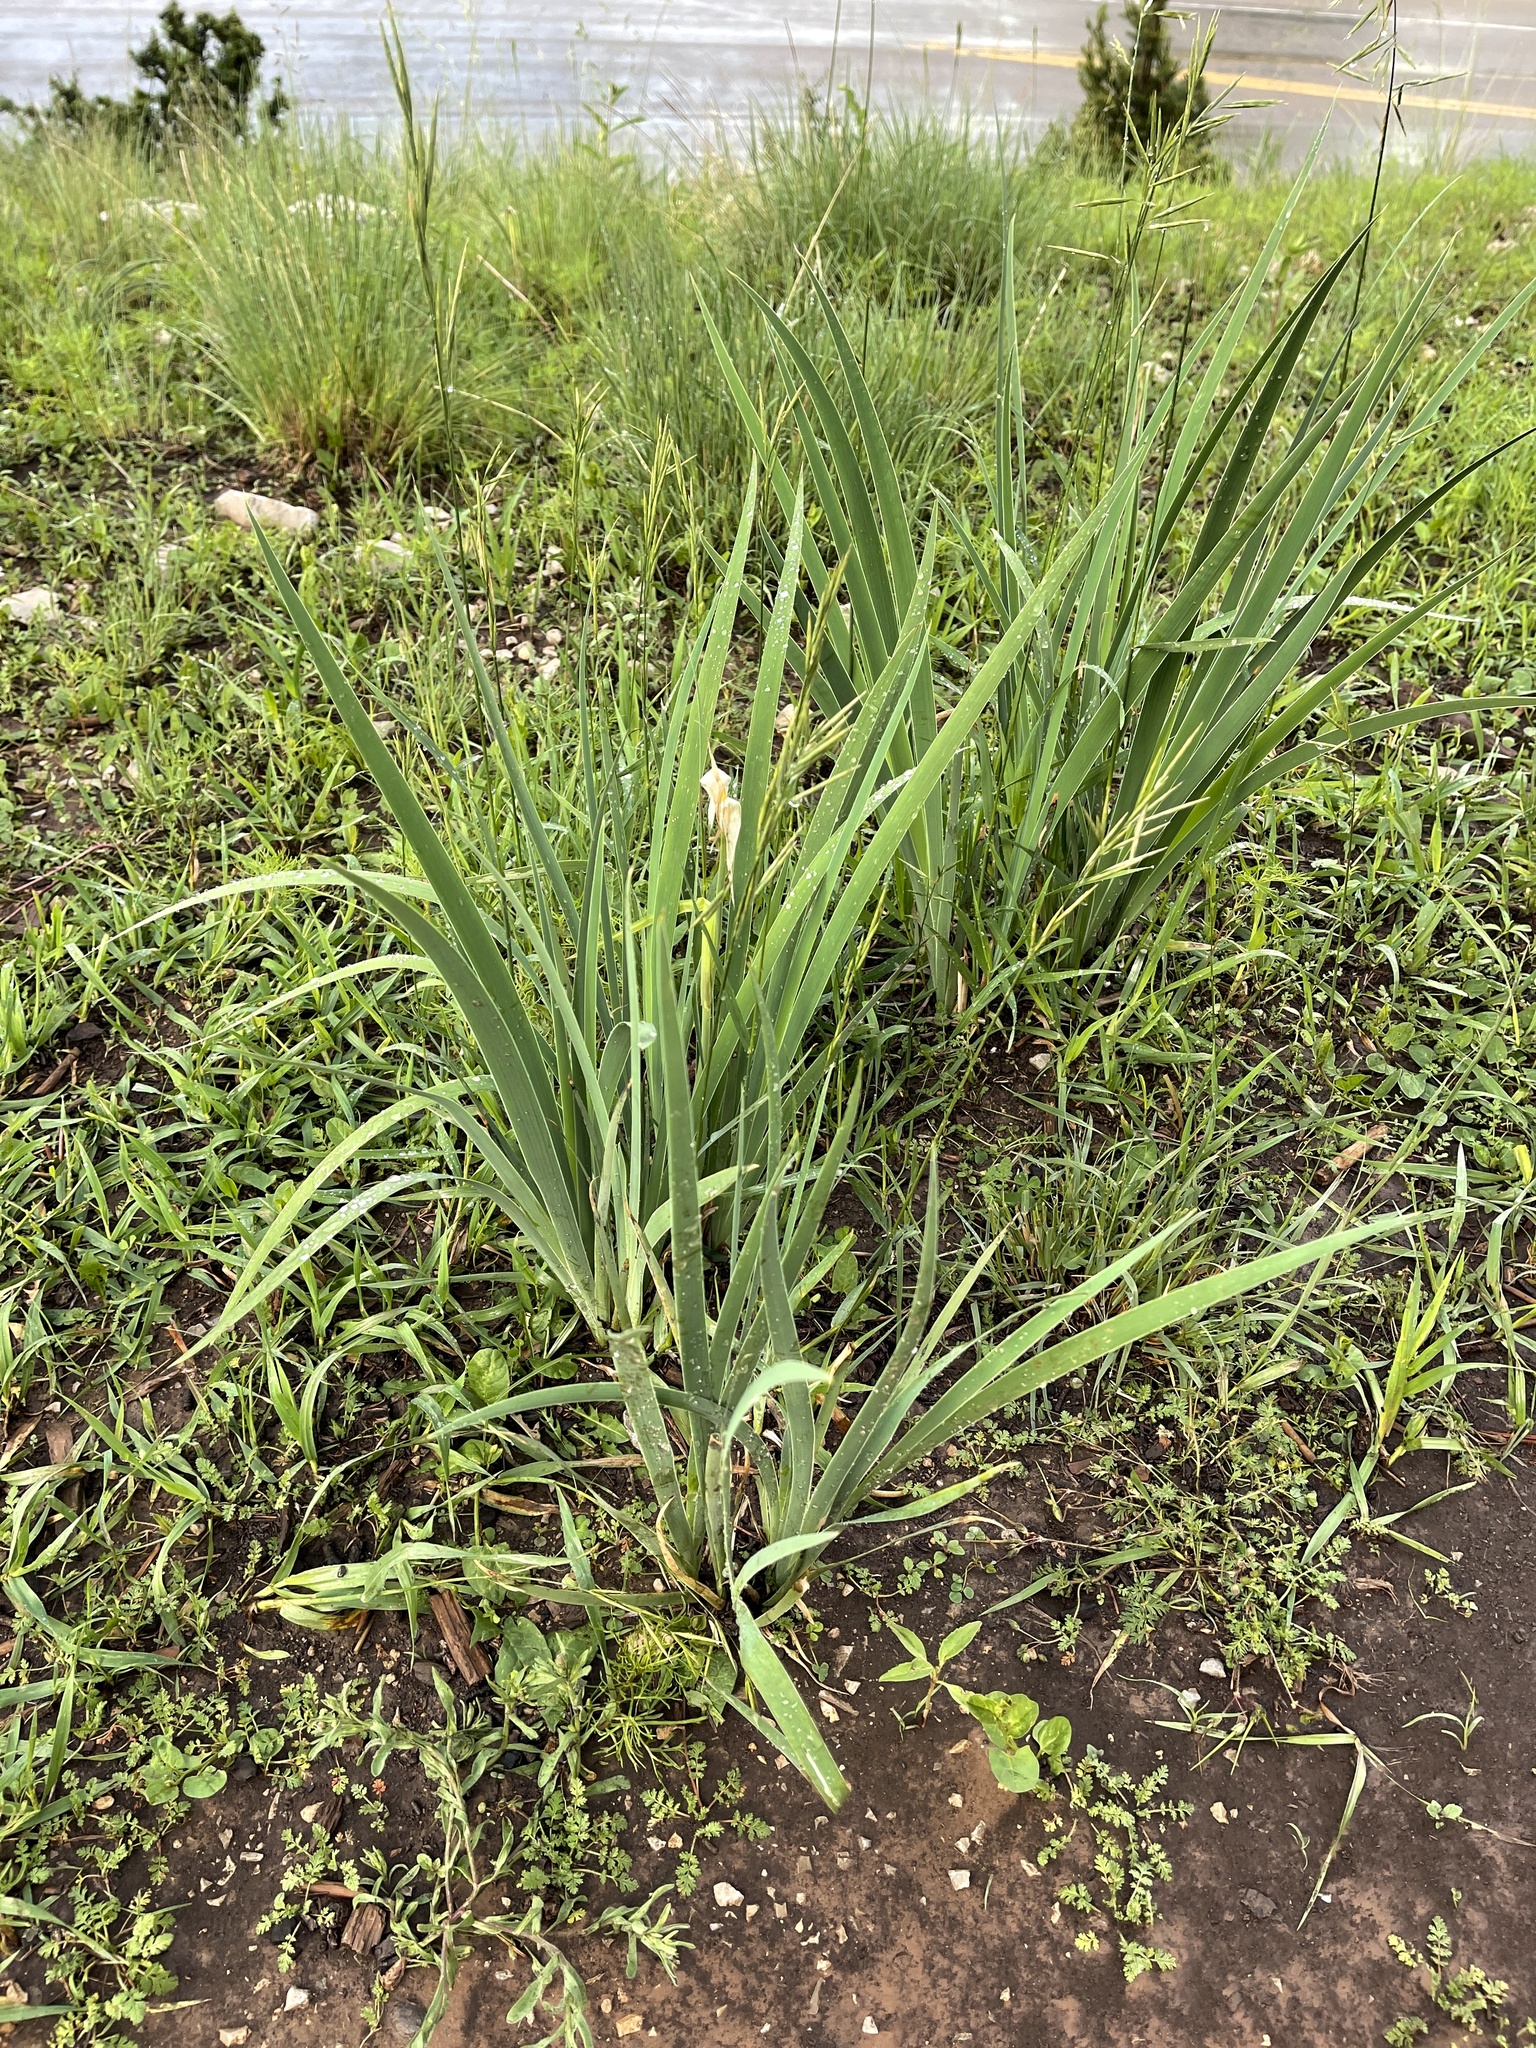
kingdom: Plantae
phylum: Tracheophyta
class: Liliopsida
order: Asparagales
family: Iridaceae
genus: Iris
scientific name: Iris missouriensis
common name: Rocky mountain iris
